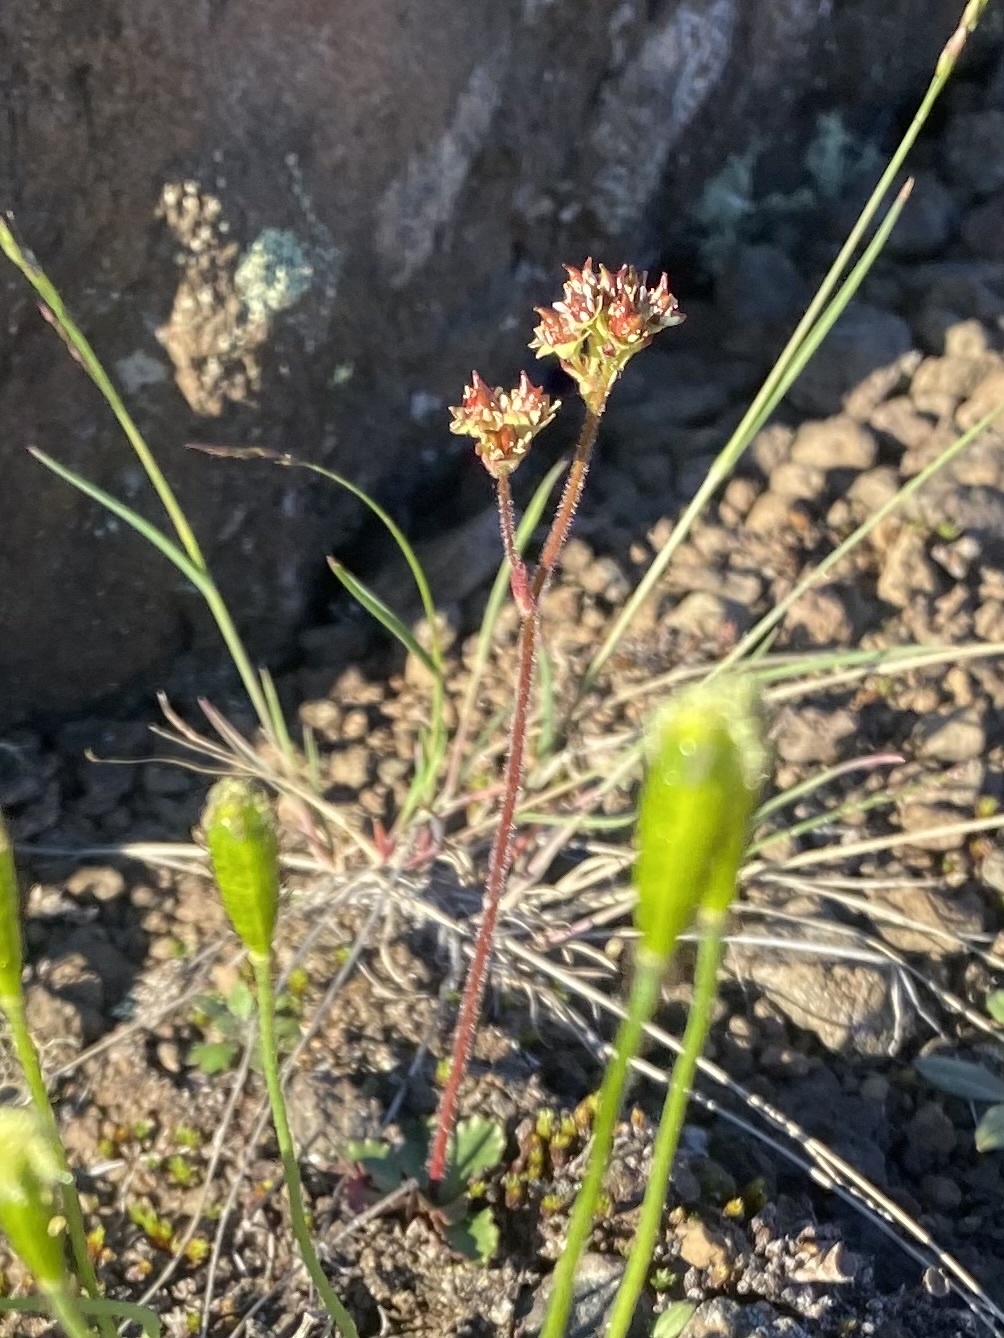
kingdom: Plantae
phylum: Tracheophyta
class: Magnoliopsida
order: Saxifragales
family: Saxifragaceae
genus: Micranthes
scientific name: Micranthes nivalis
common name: Alpine saxifrage
